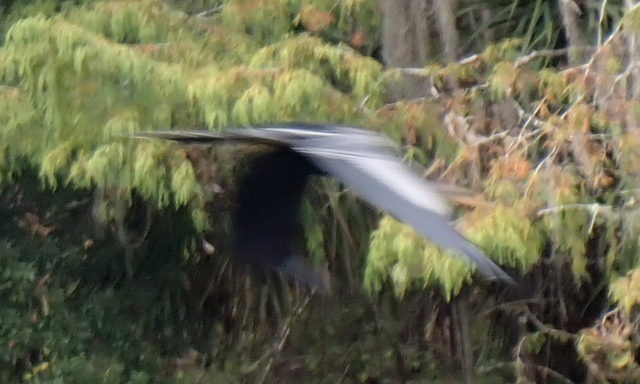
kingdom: Animalia
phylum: Chordata
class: Aves
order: Suliformes
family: Anhingidae
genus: Anhinga
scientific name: Anhinga anhinga
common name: Anhinga
